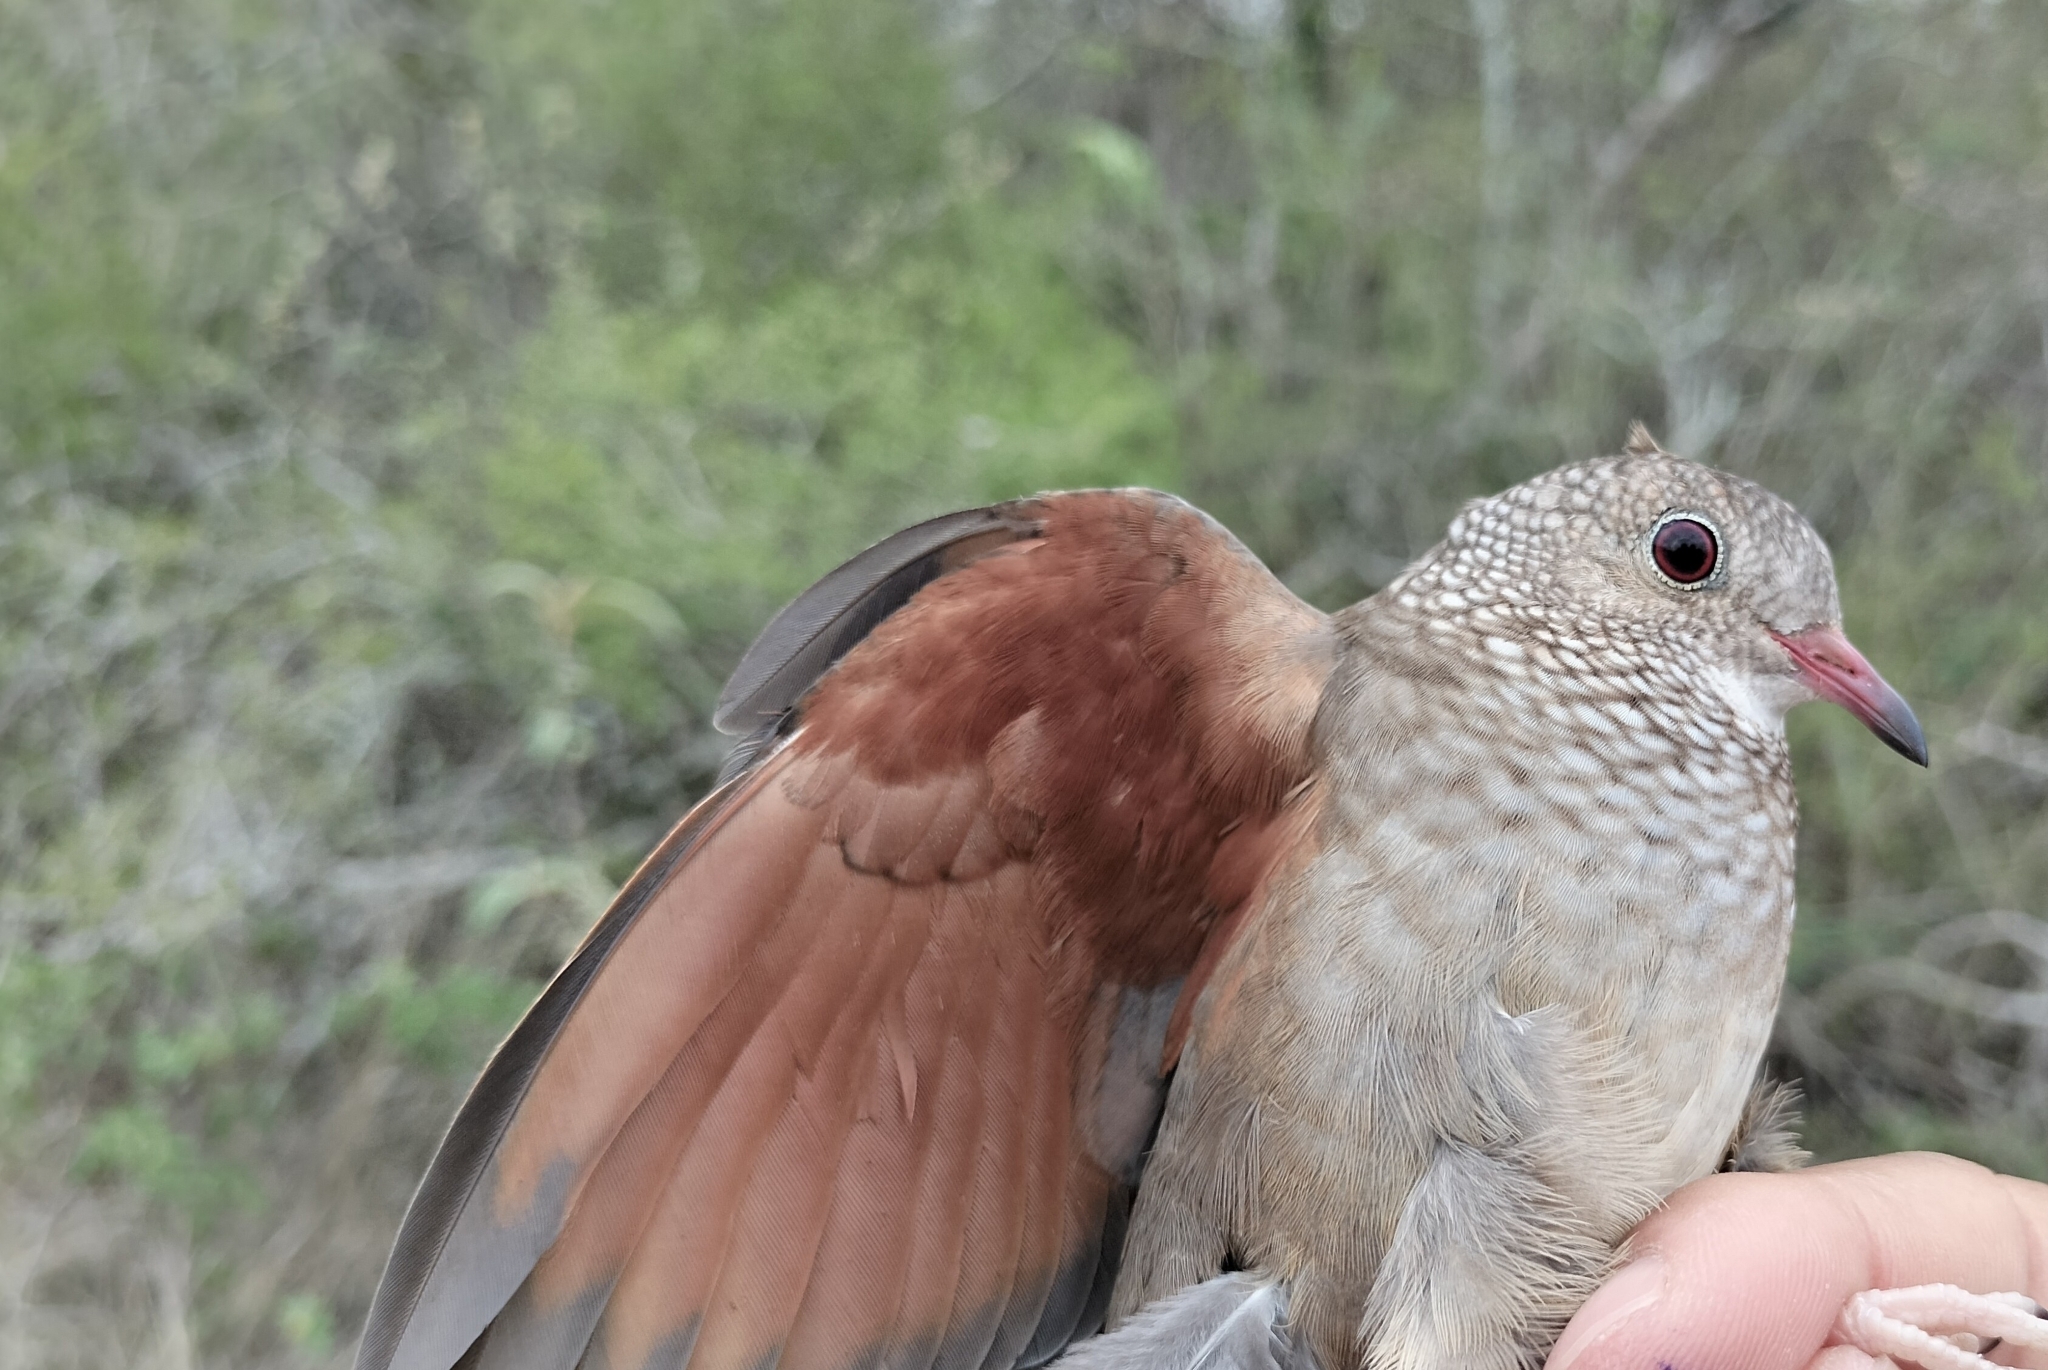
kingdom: Animalia
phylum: Chordata
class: Aves
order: Columbiformes
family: Columbidae
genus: Columbina
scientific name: Columbina passerina
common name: Common ground-dove
